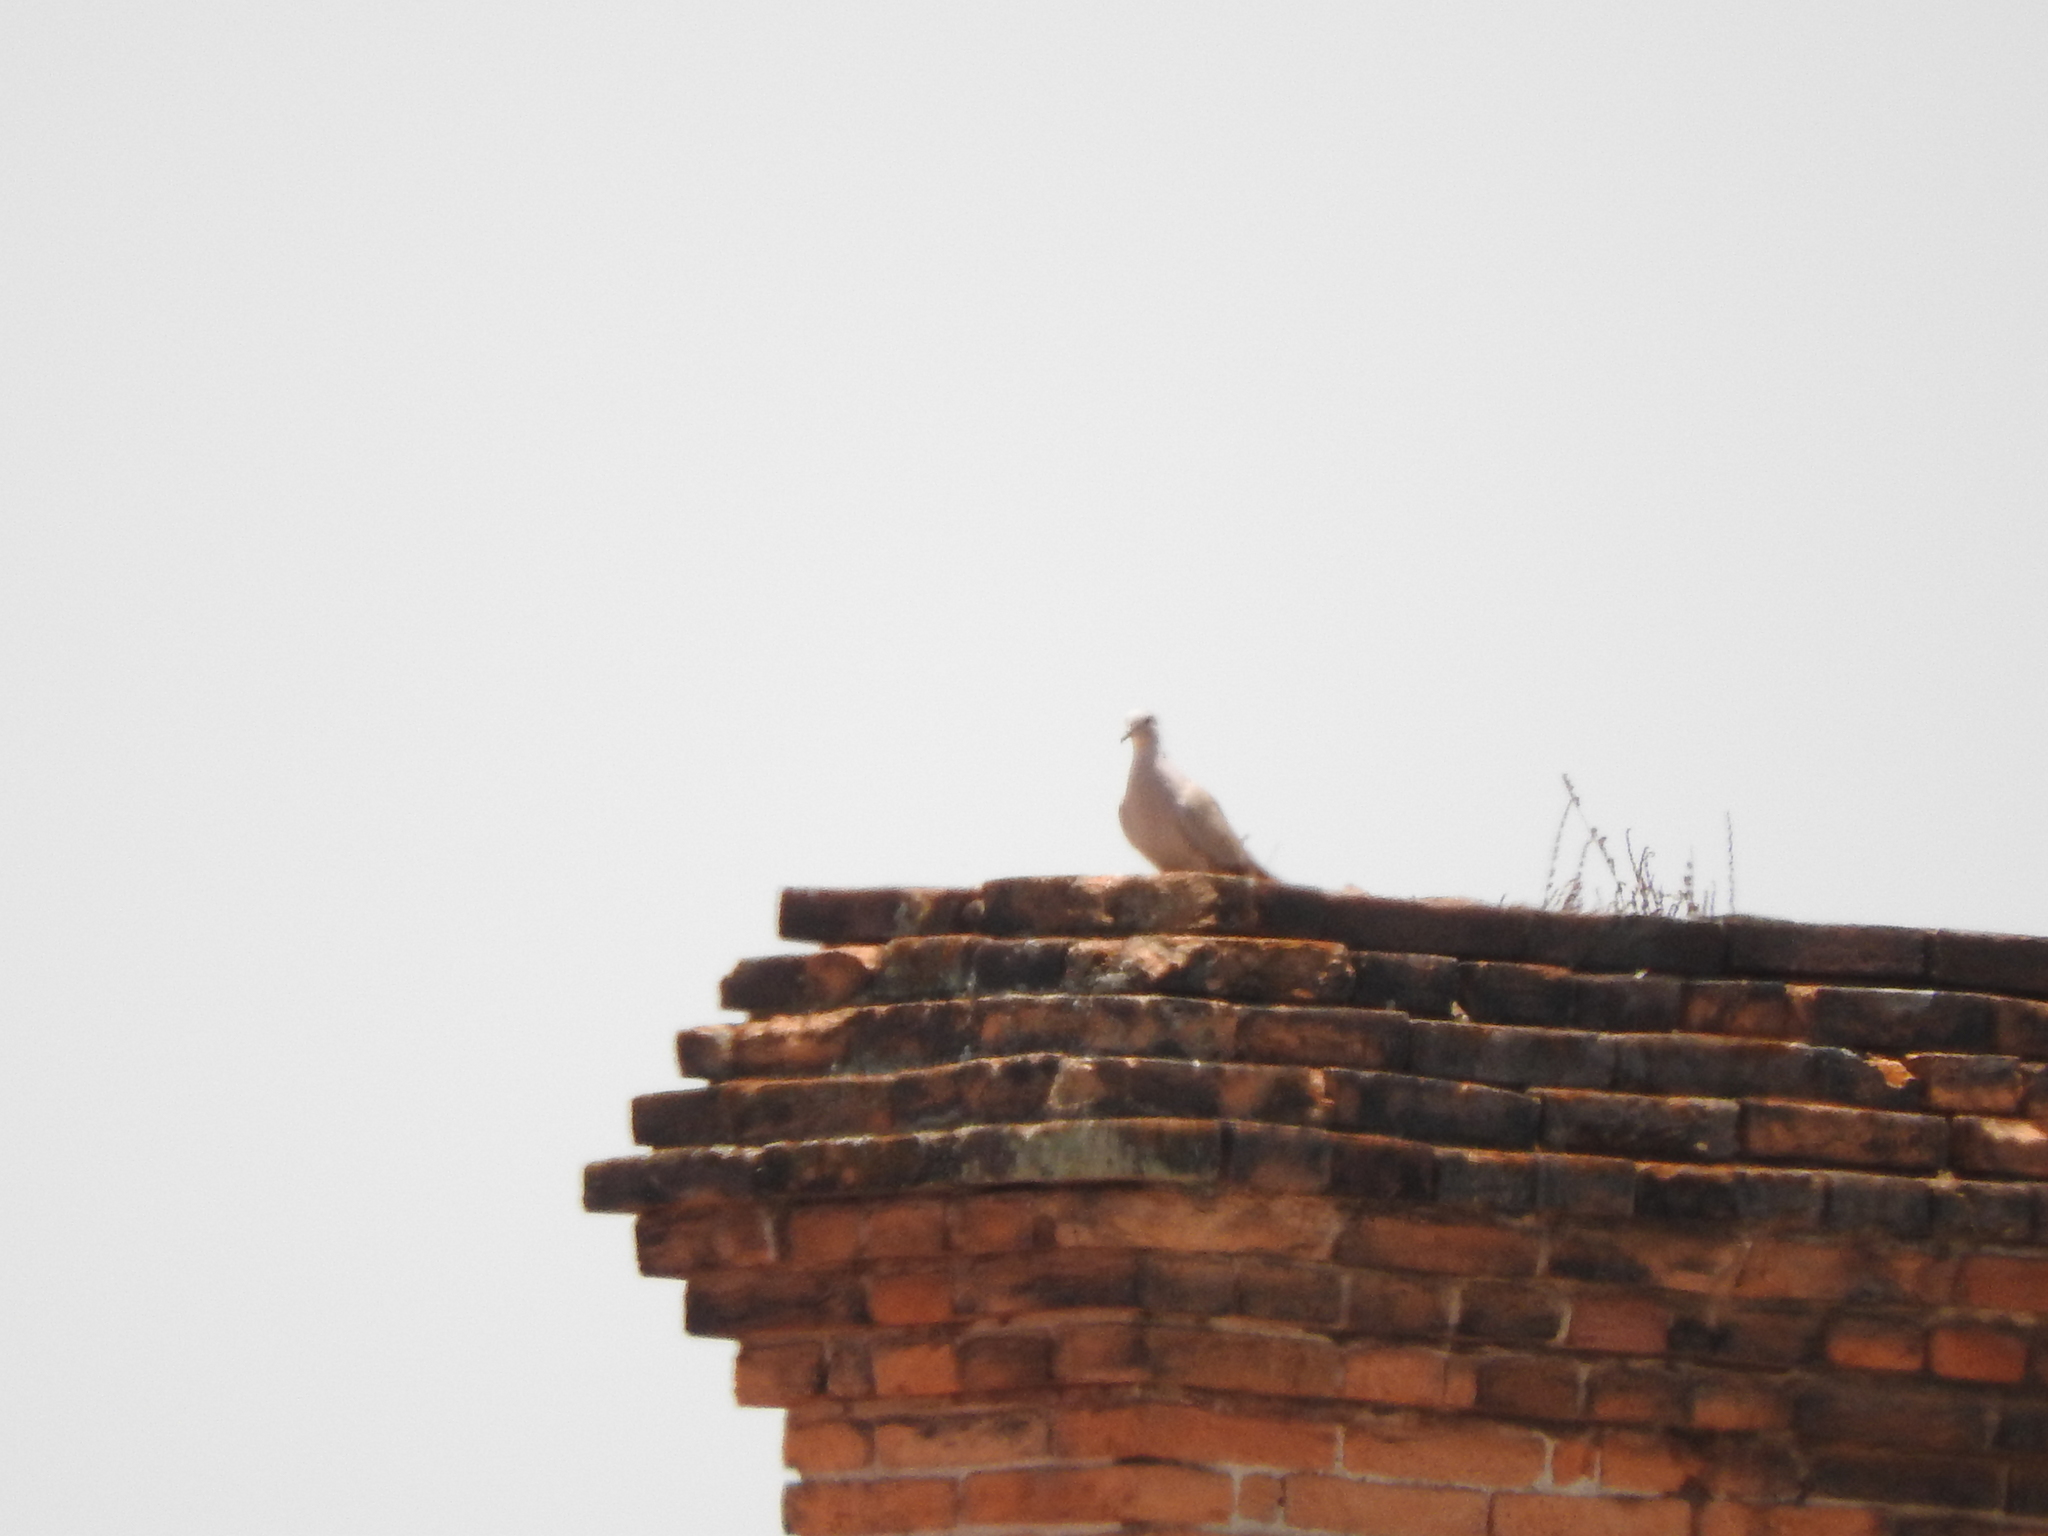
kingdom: Animalia
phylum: Chordata
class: Aves
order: Columbiformes
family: Columbidae
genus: Streptopelia
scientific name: Streptopelia decaocto
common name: Eurasian collared dove
